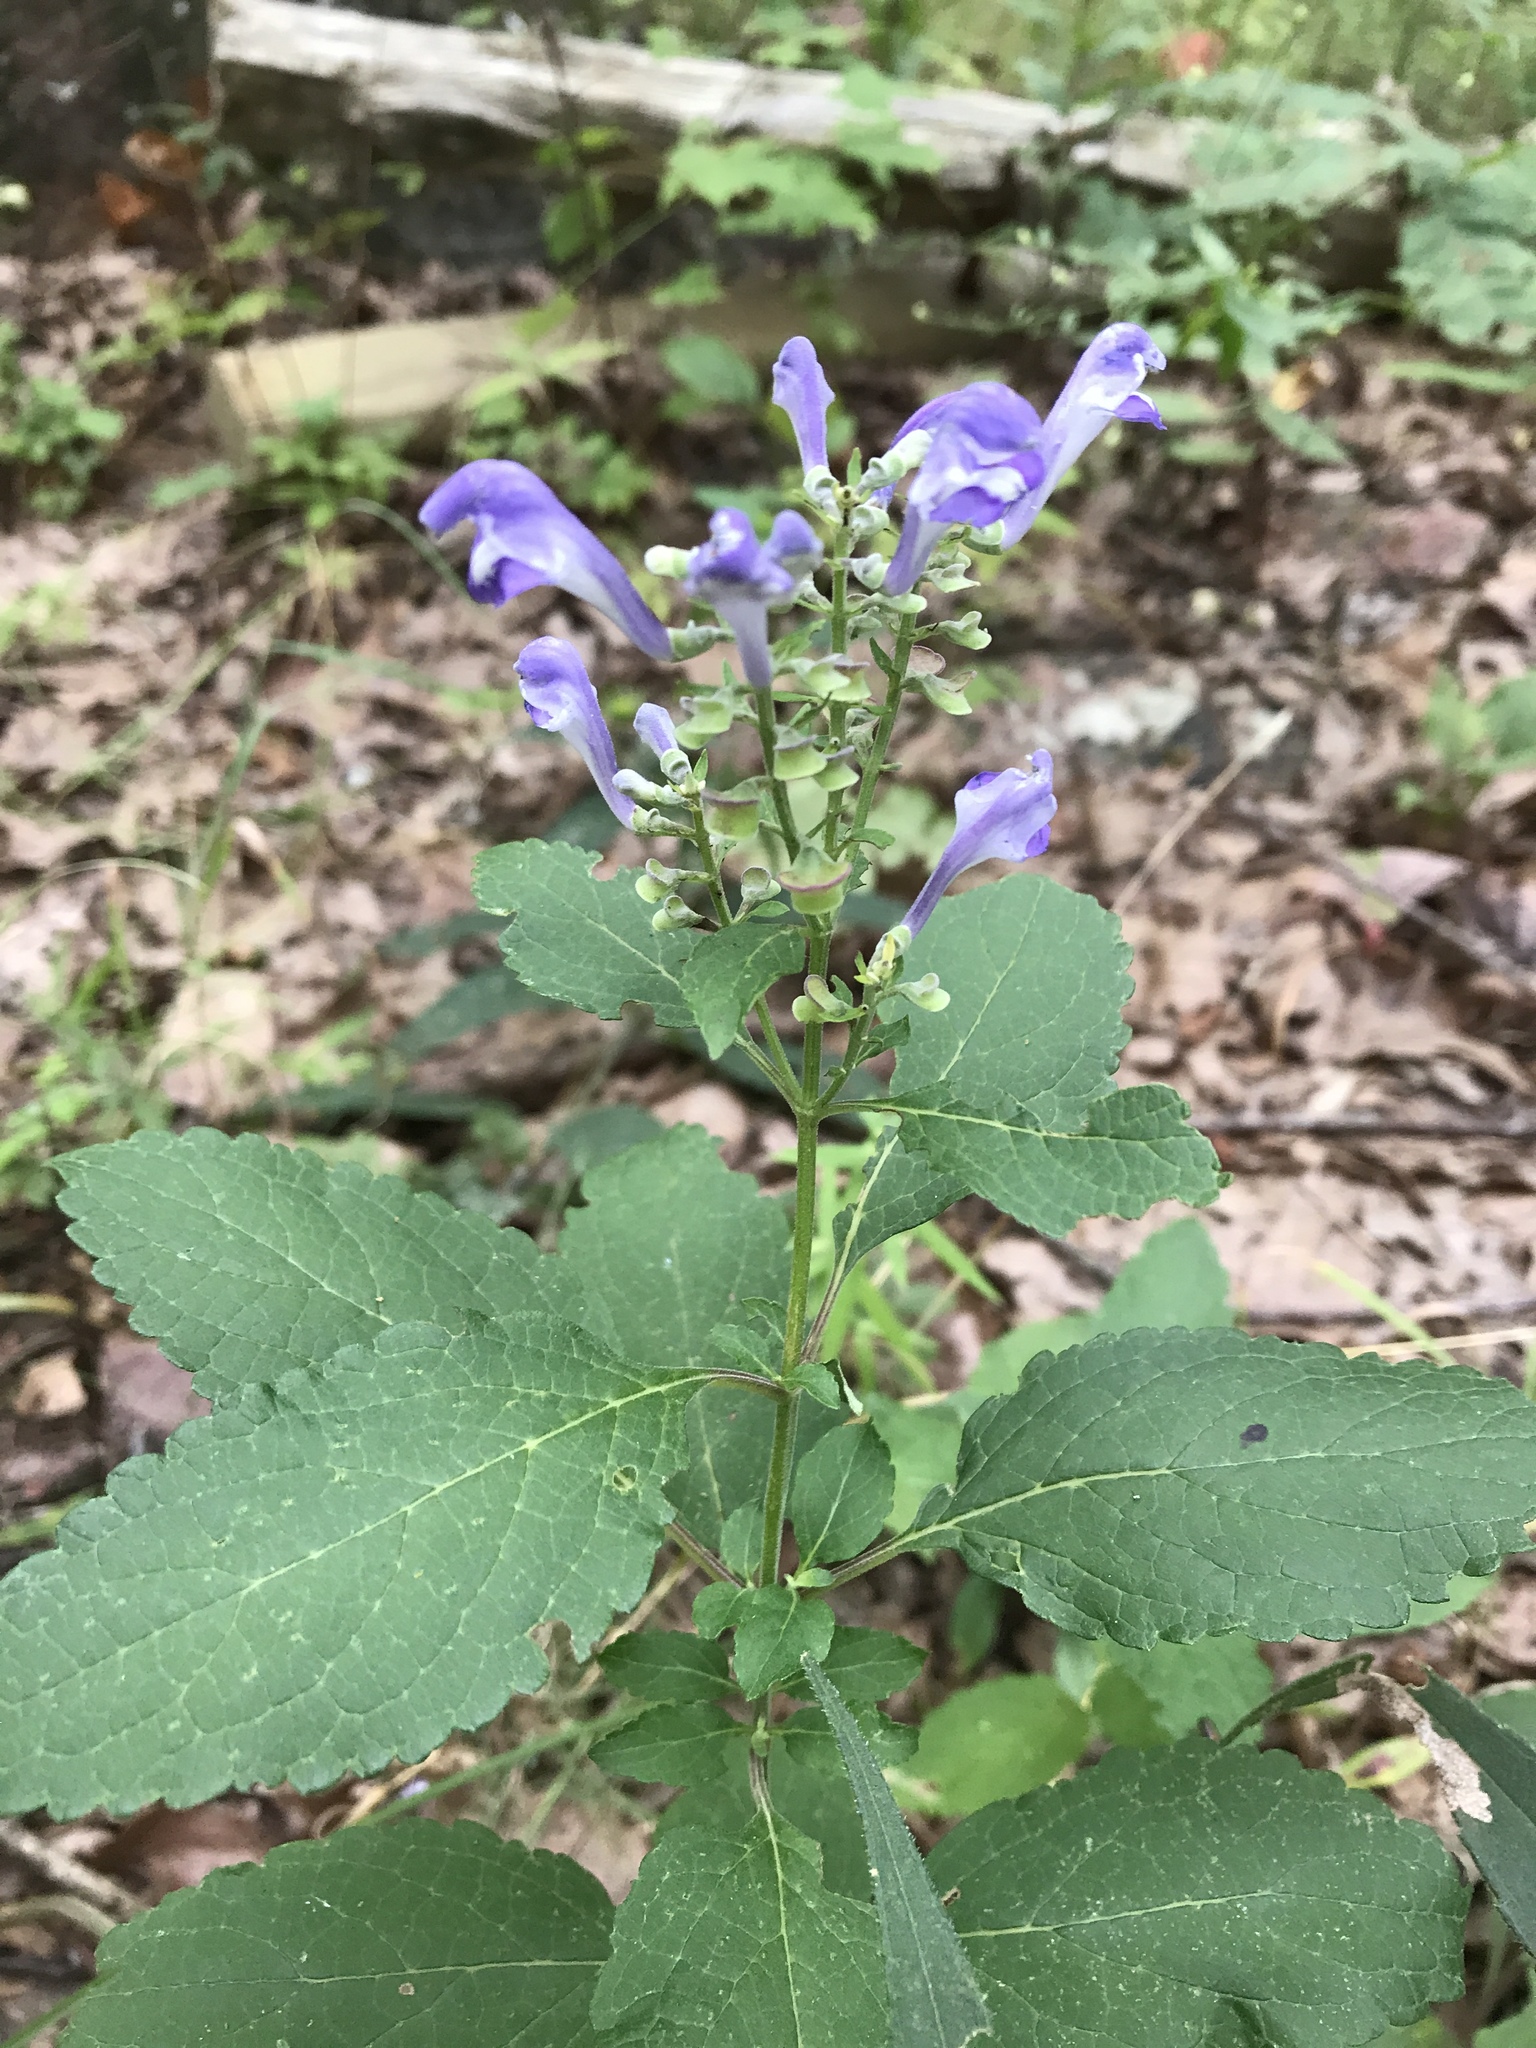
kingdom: Plantae
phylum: Tracheophyta
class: Magnoliopsida
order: Lamiales
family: Lamiaceae
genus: Scutellaria
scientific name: Scutellaria incana
